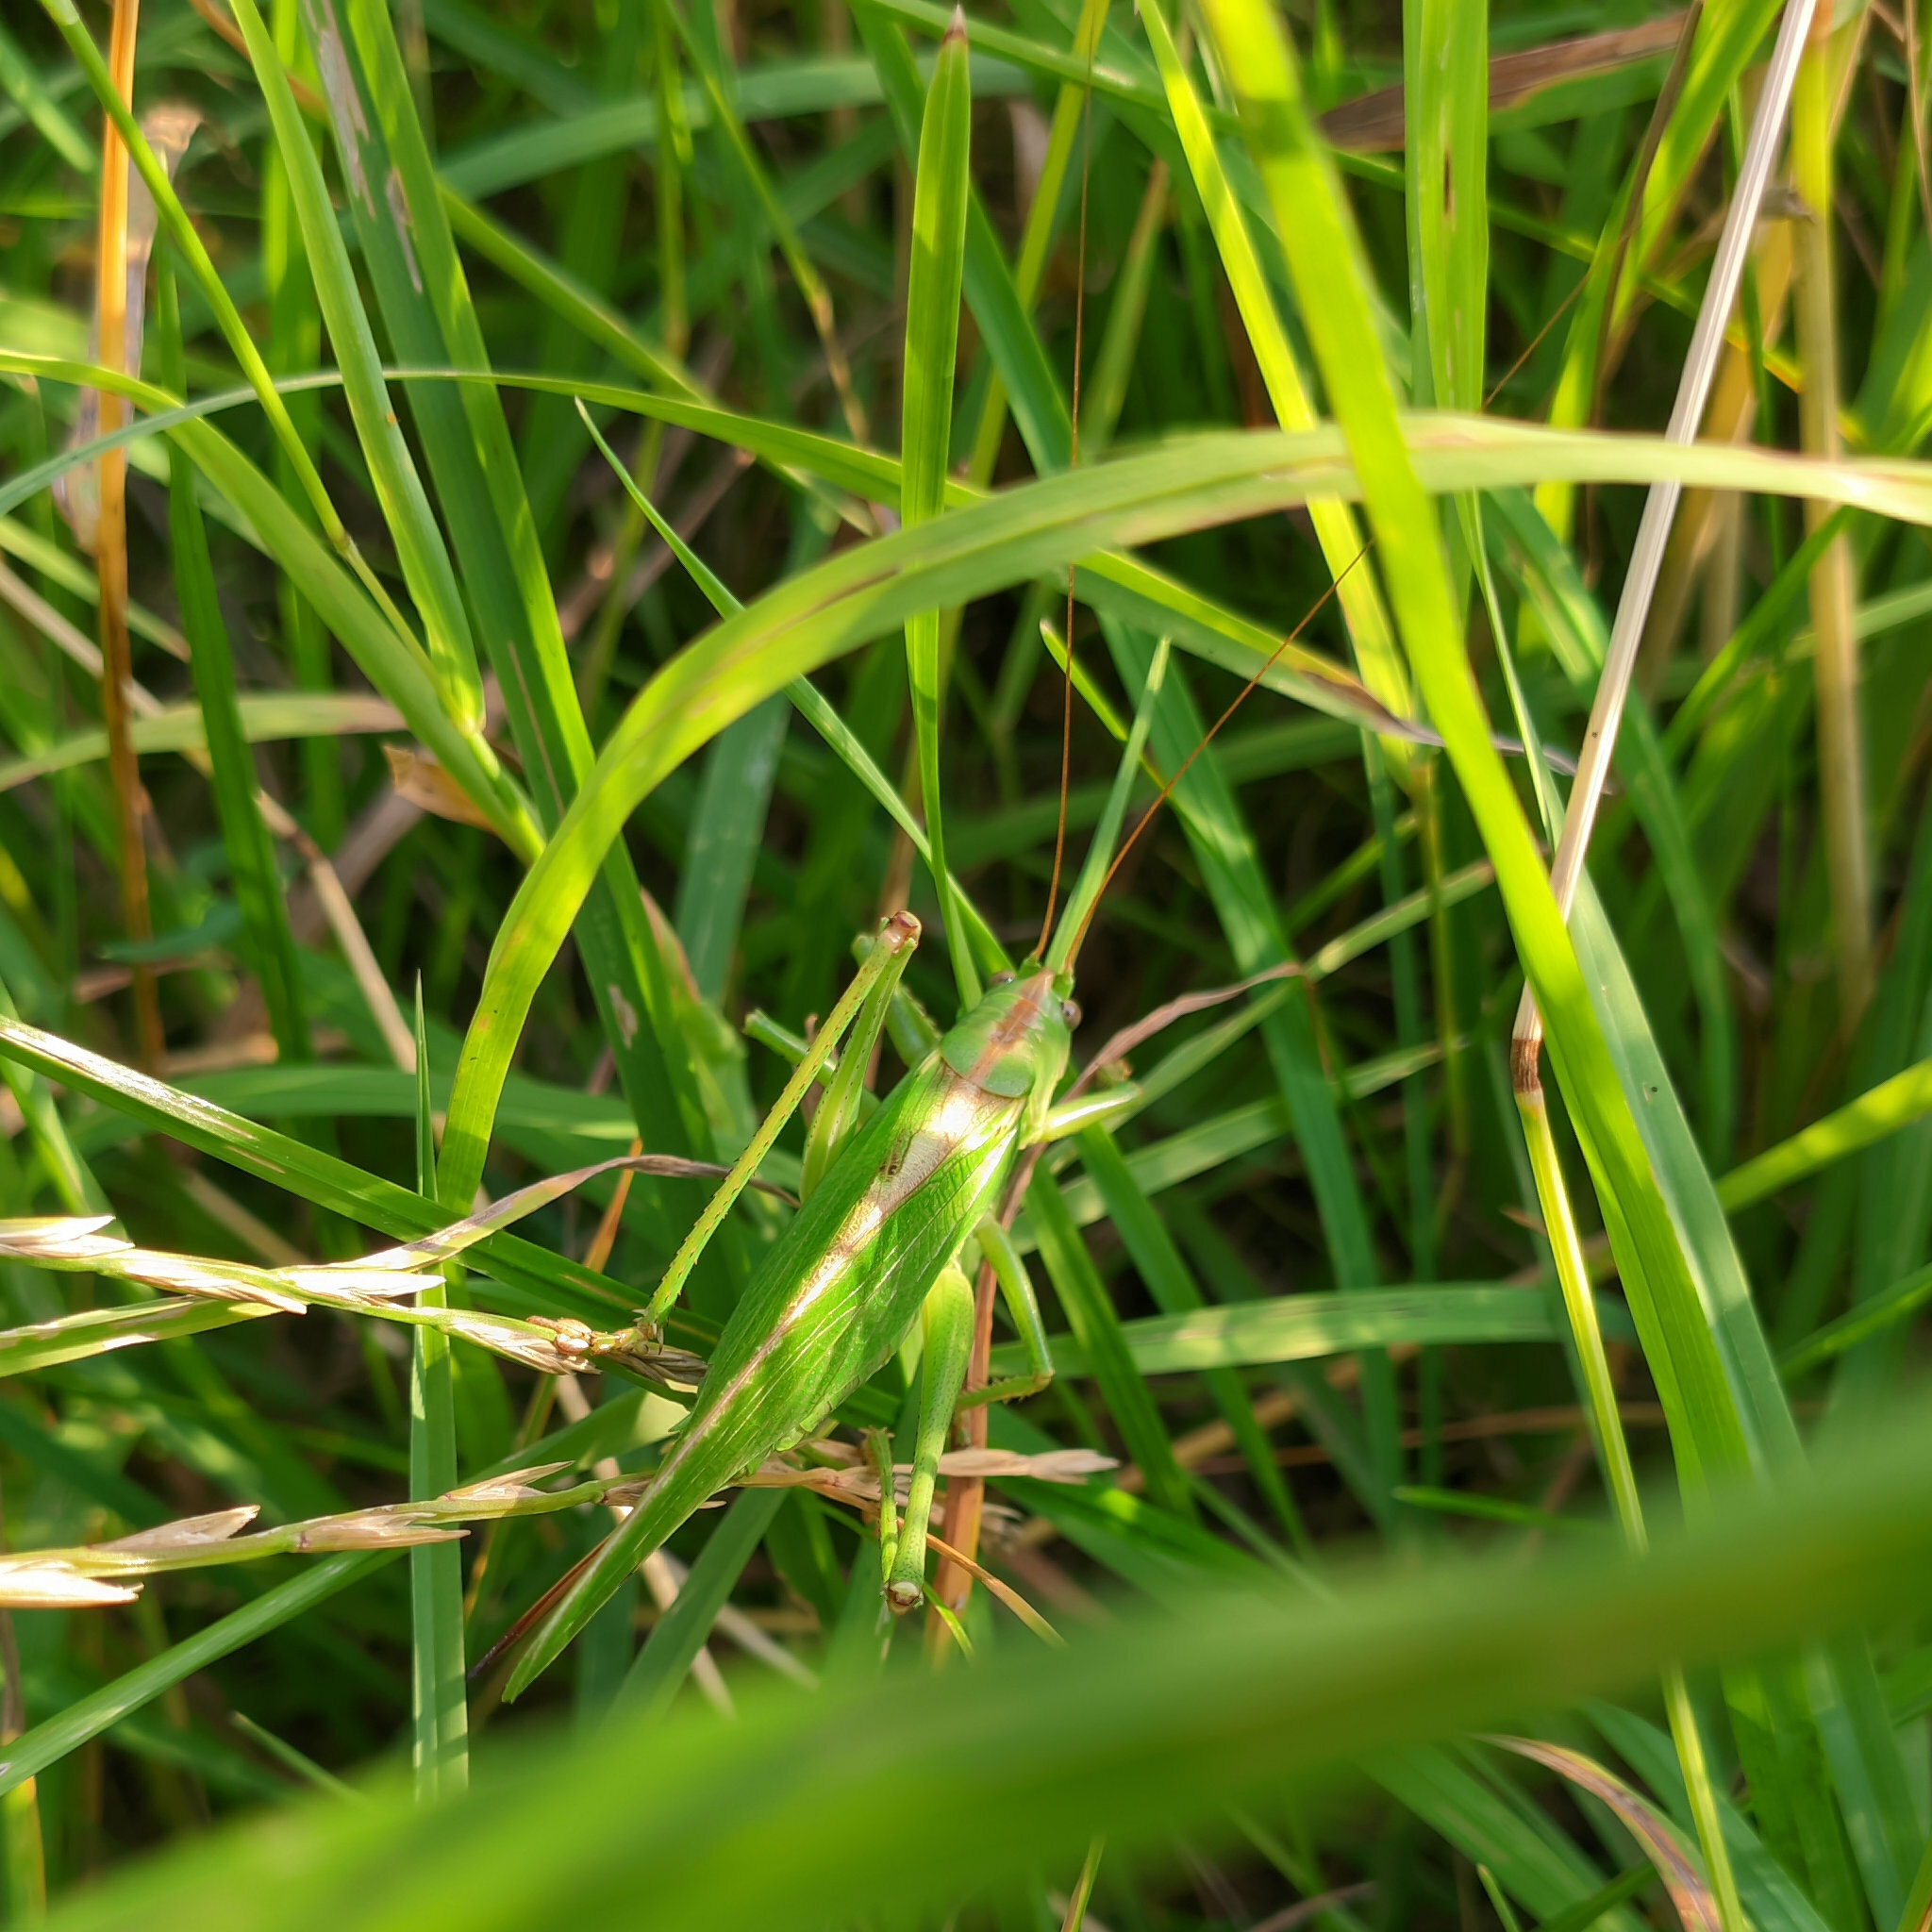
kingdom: Animalia
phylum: Arthropoda
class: Insecta
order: Orthoptera
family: Tettigoniidae
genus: Tettigonia
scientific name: Tettigonia viridissima
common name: Great green bush-cricket
